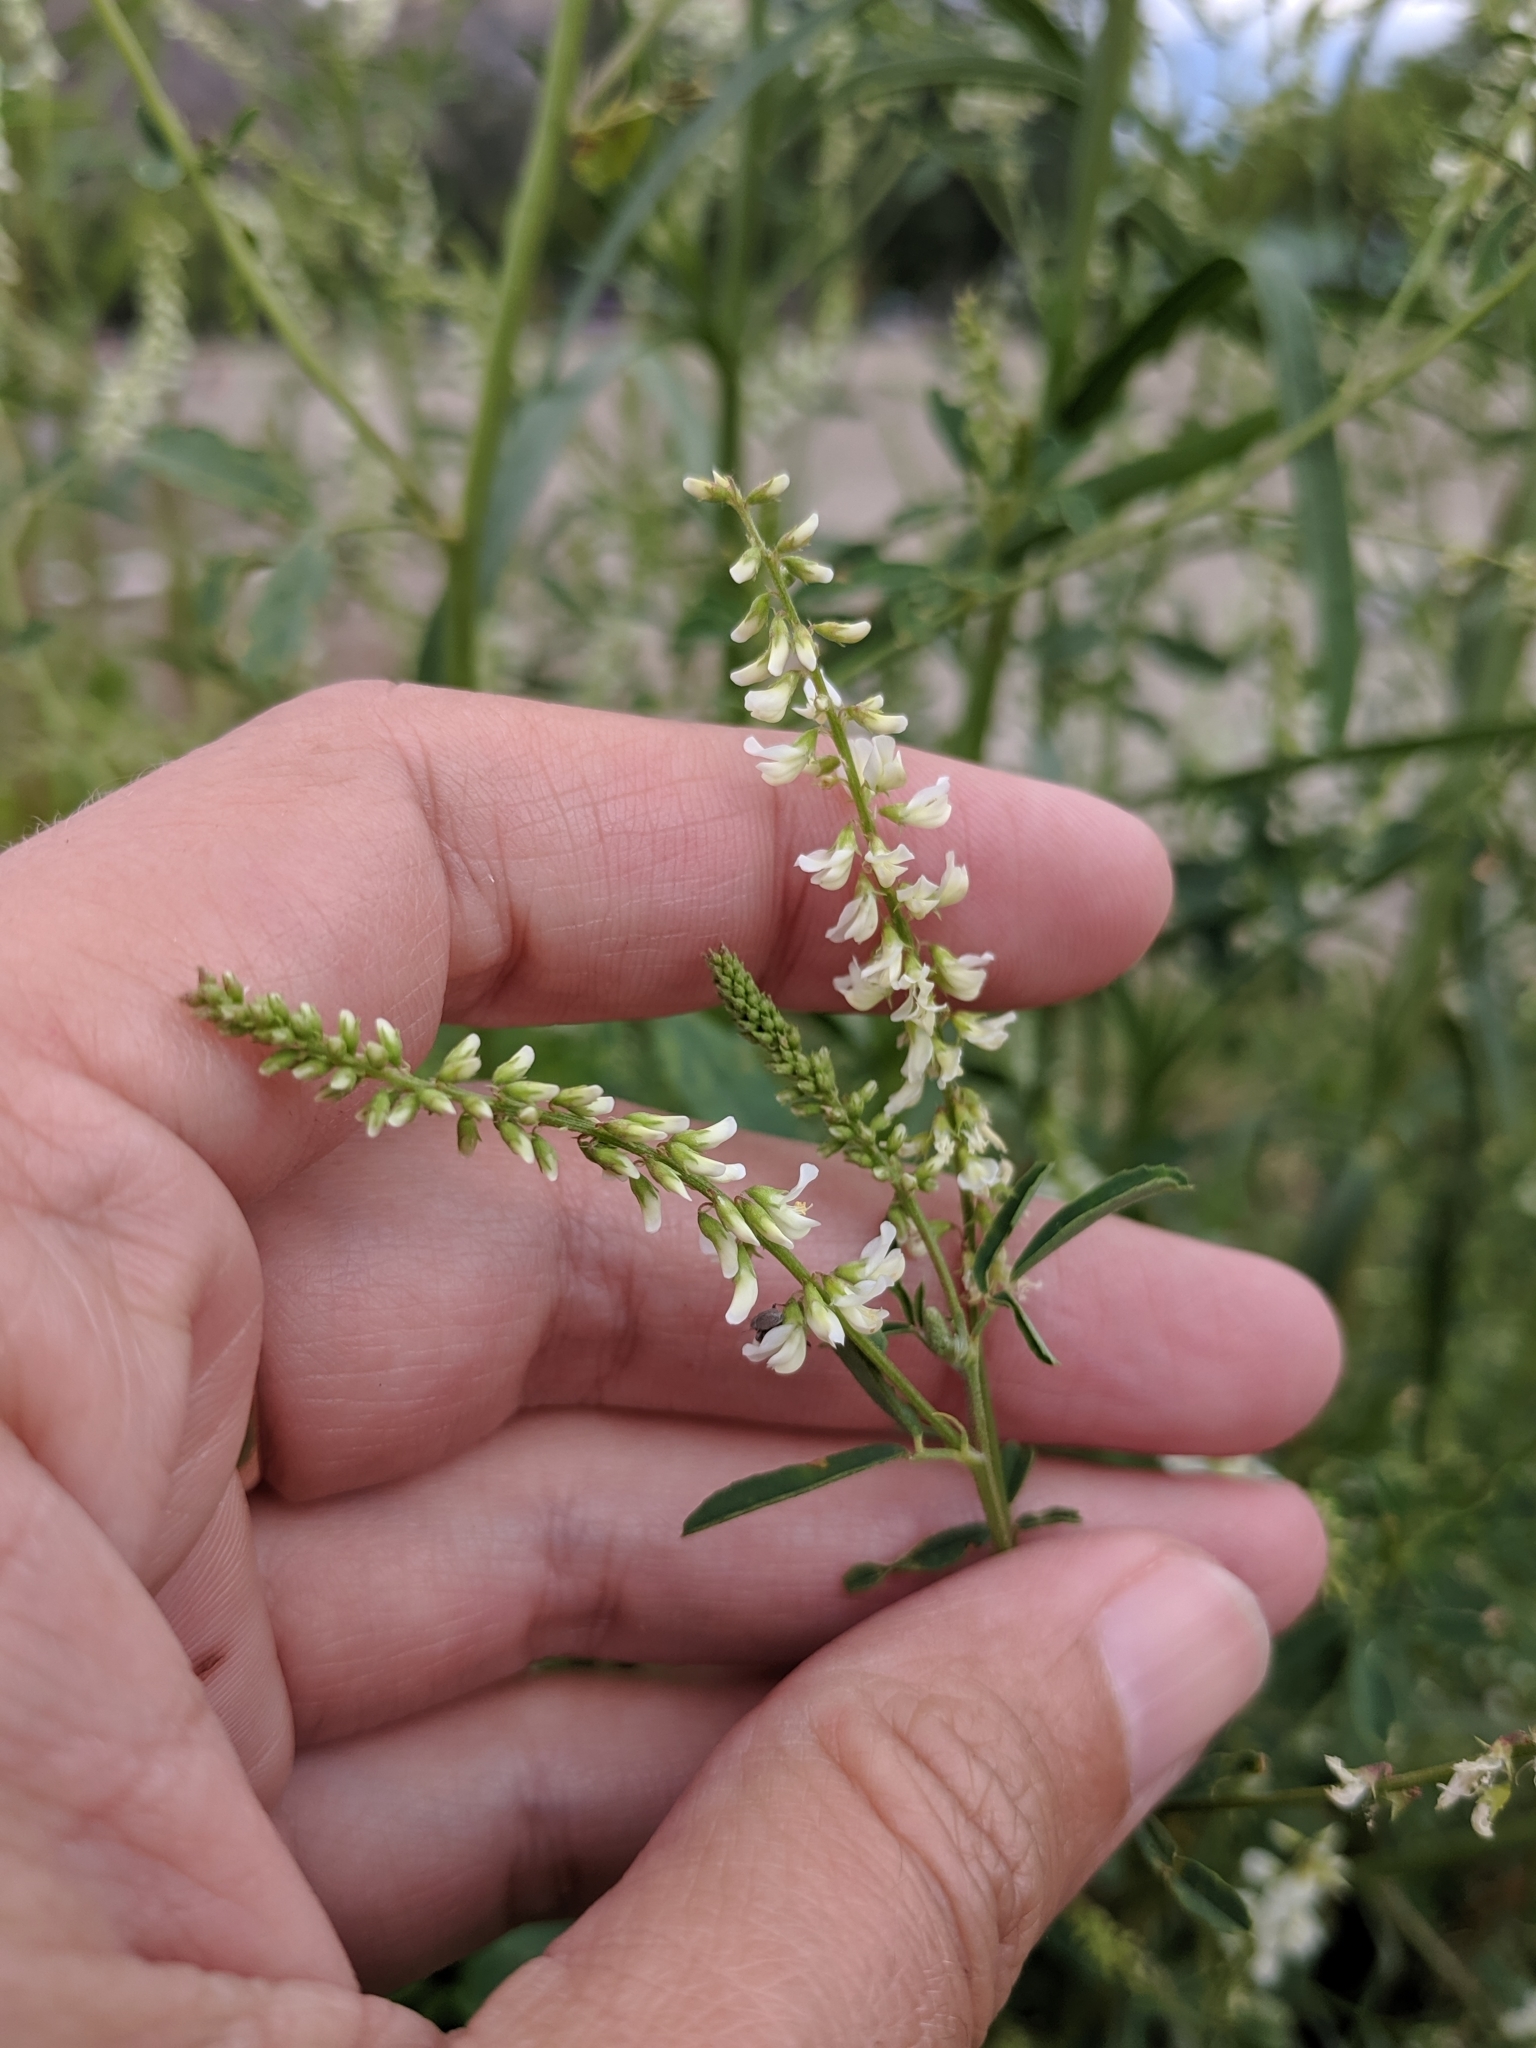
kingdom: Plantae
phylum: Tracheophyta
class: Magnoliopsida
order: Fabales
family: Fabaceae
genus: Melilotus
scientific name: Melilotus albus
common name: White melilot
